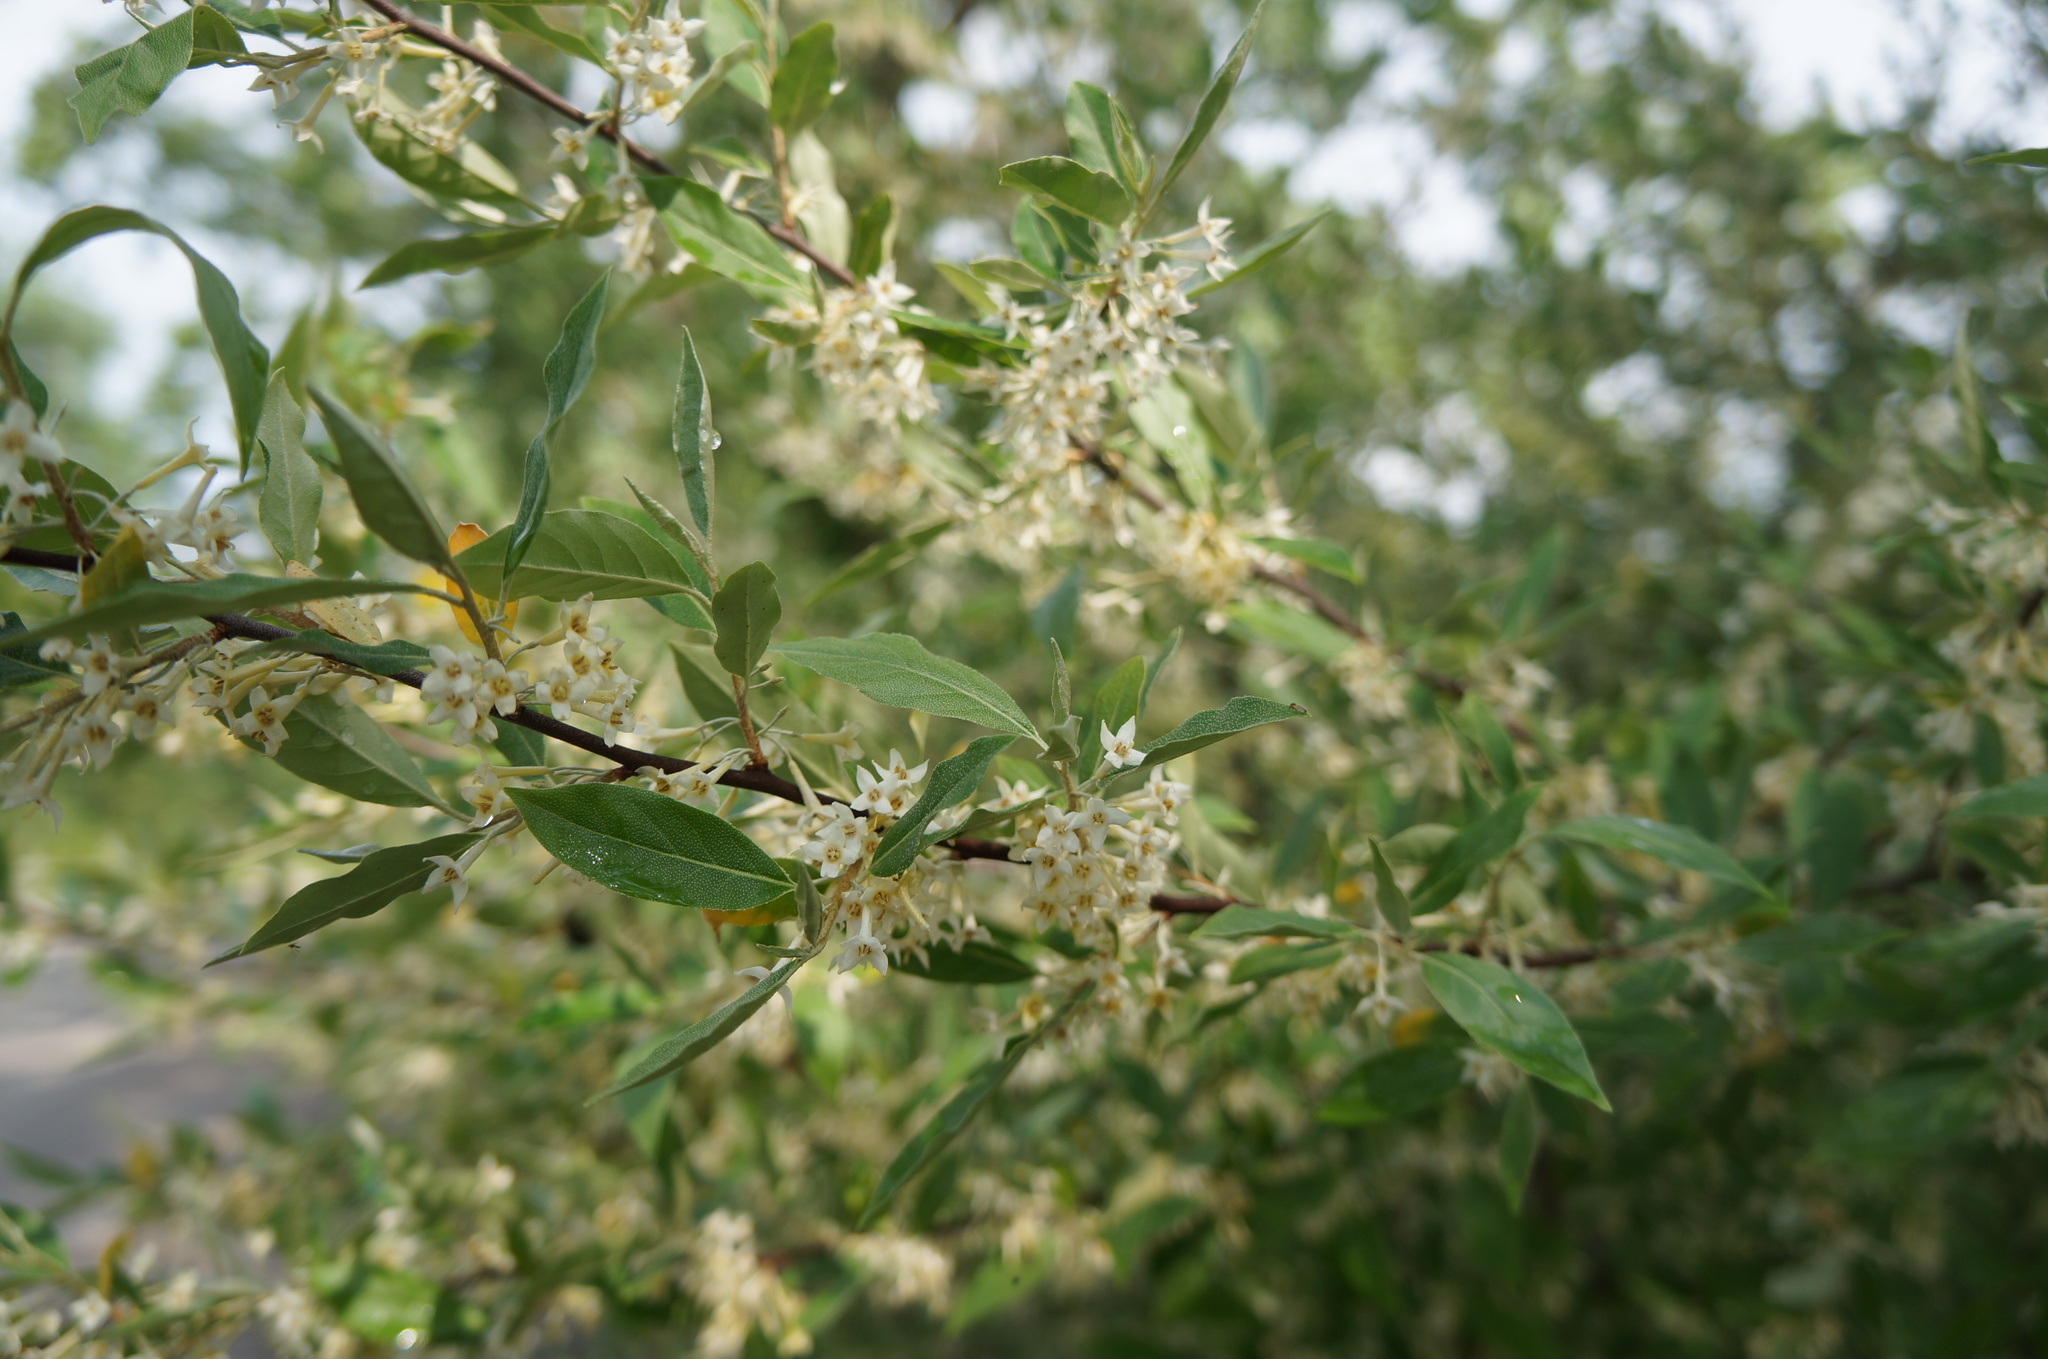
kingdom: Plantae
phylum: Tracheophyta
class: Magnoliopsida
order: Rosales
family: Elaeagnaceae
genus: Elaeagnus
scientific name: Elaeagnus umbellata
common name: Autumn olive
